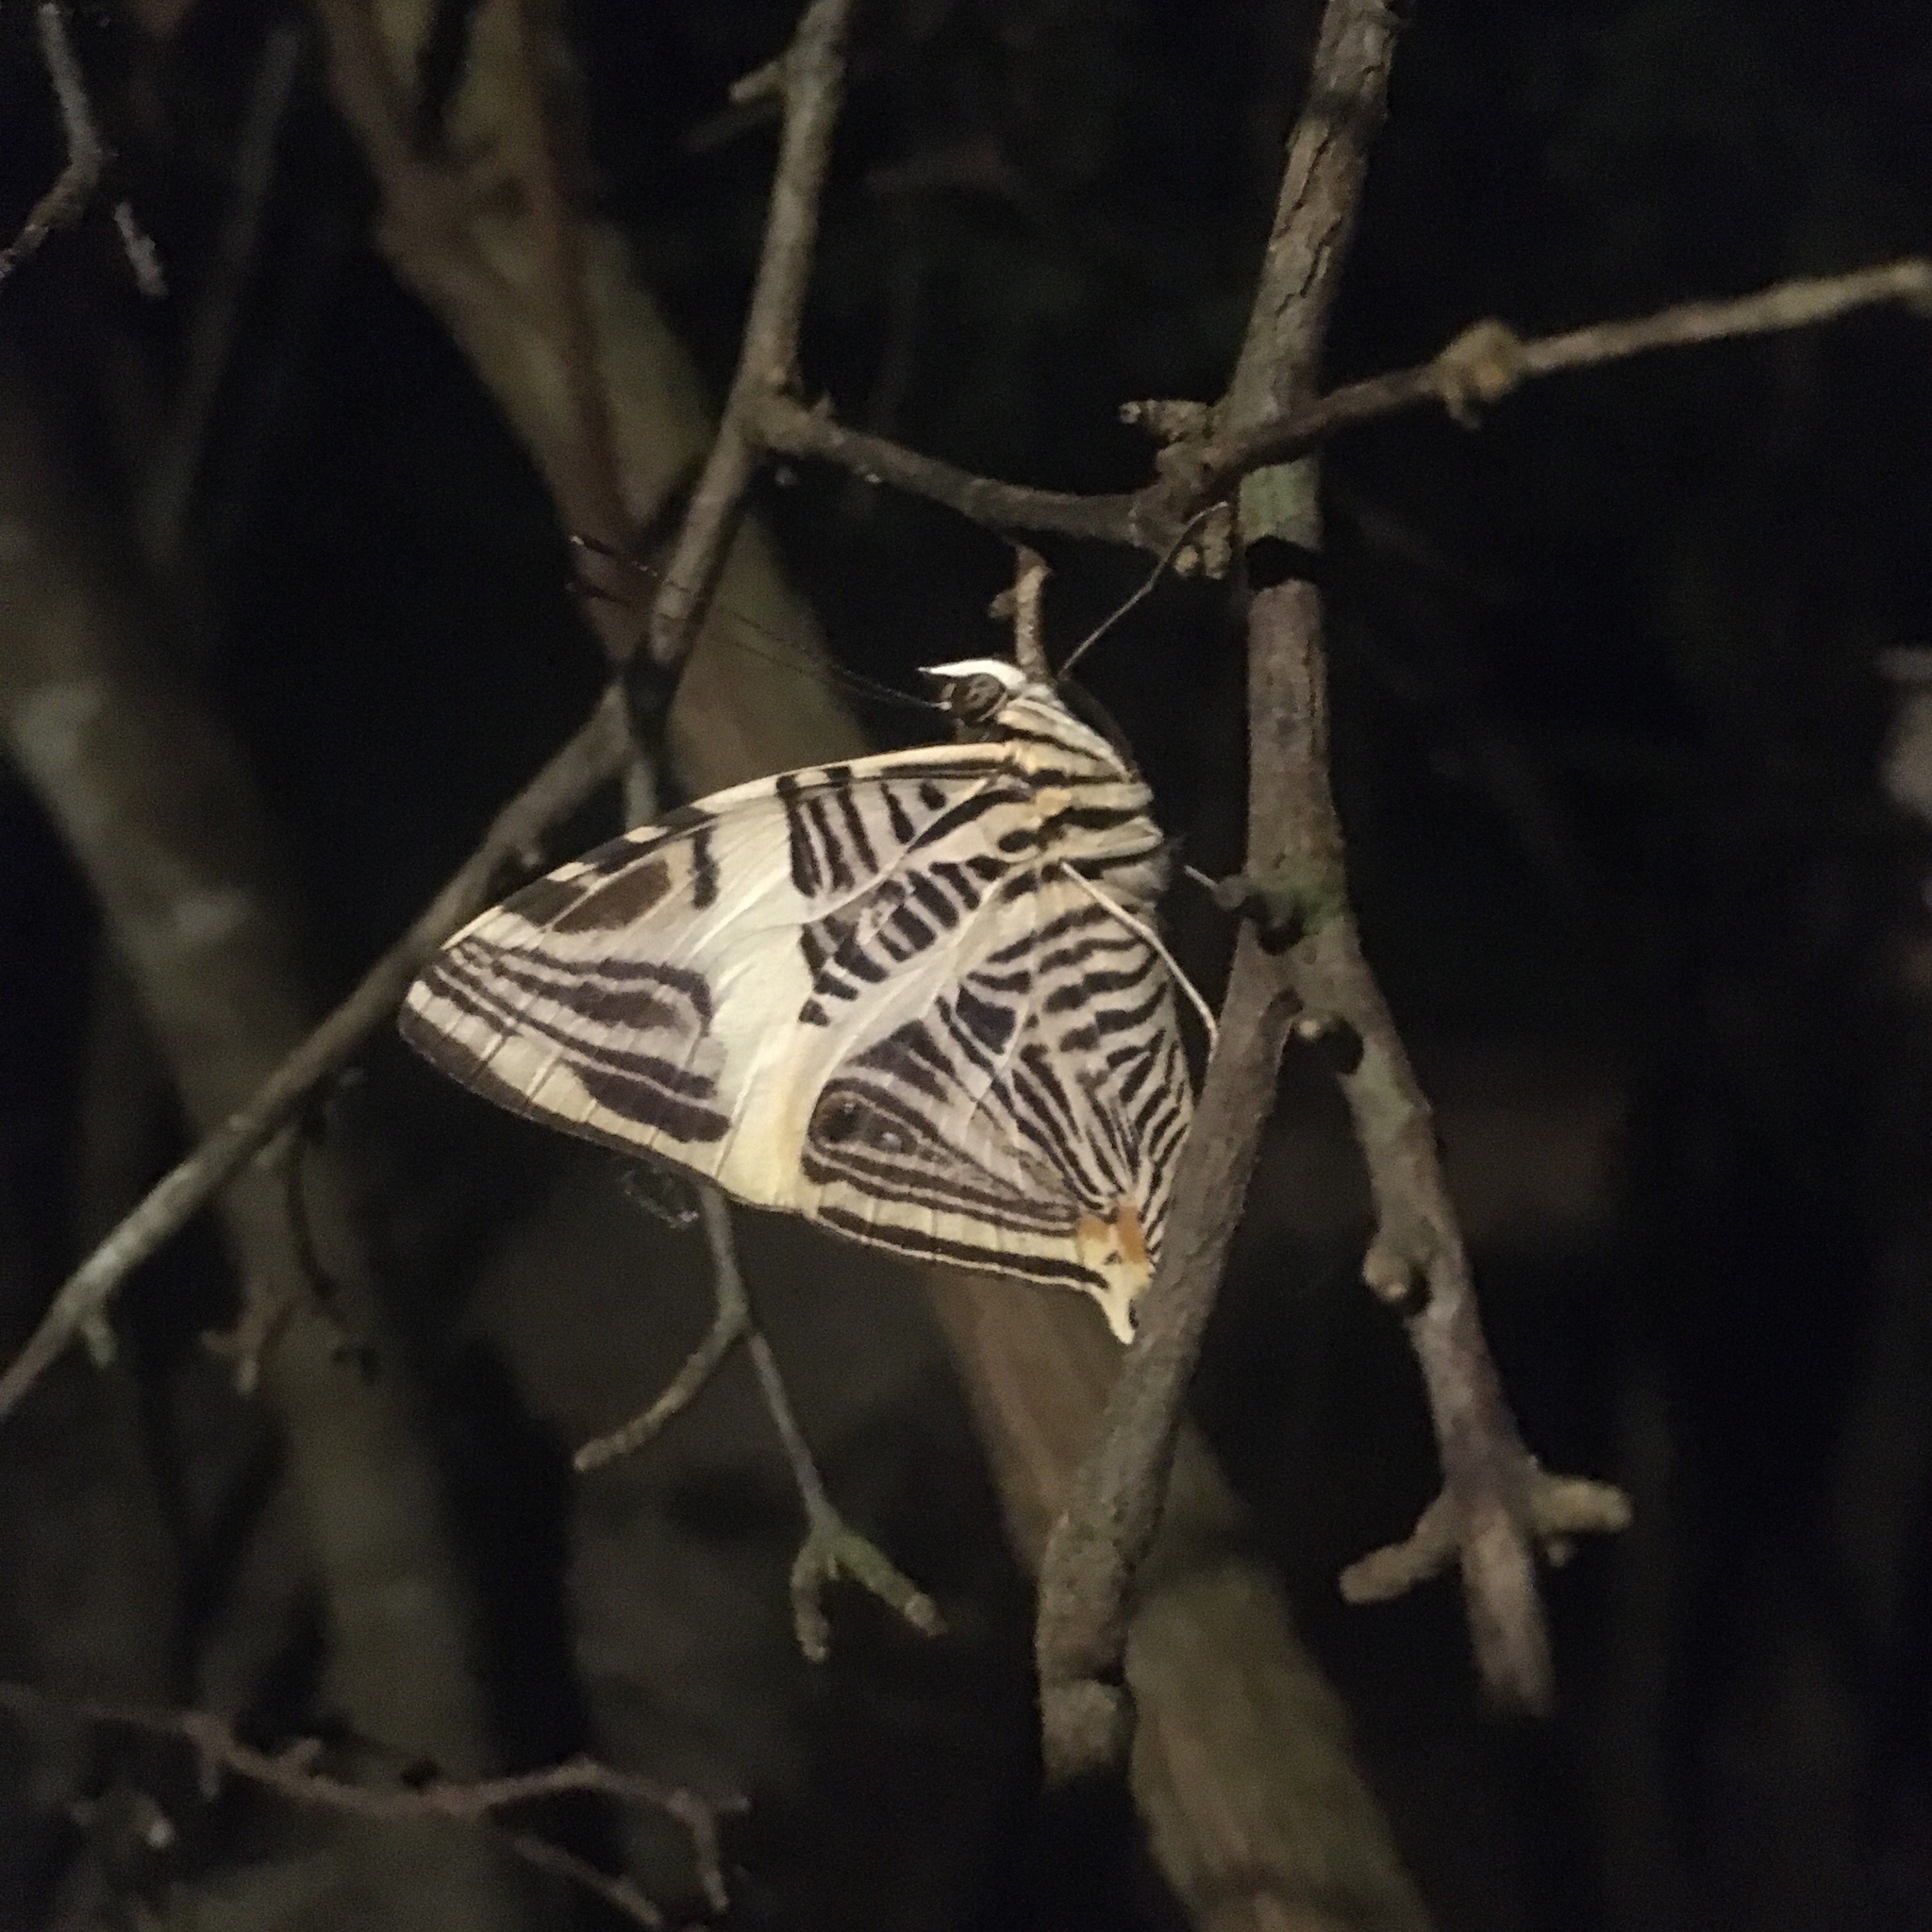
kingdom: Animalia
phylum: Arthropoda
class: Insecta
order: Lepidoptera
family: Nymphalidae
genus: Colobura
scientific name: Colobura dirce
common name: Dirce beauty
